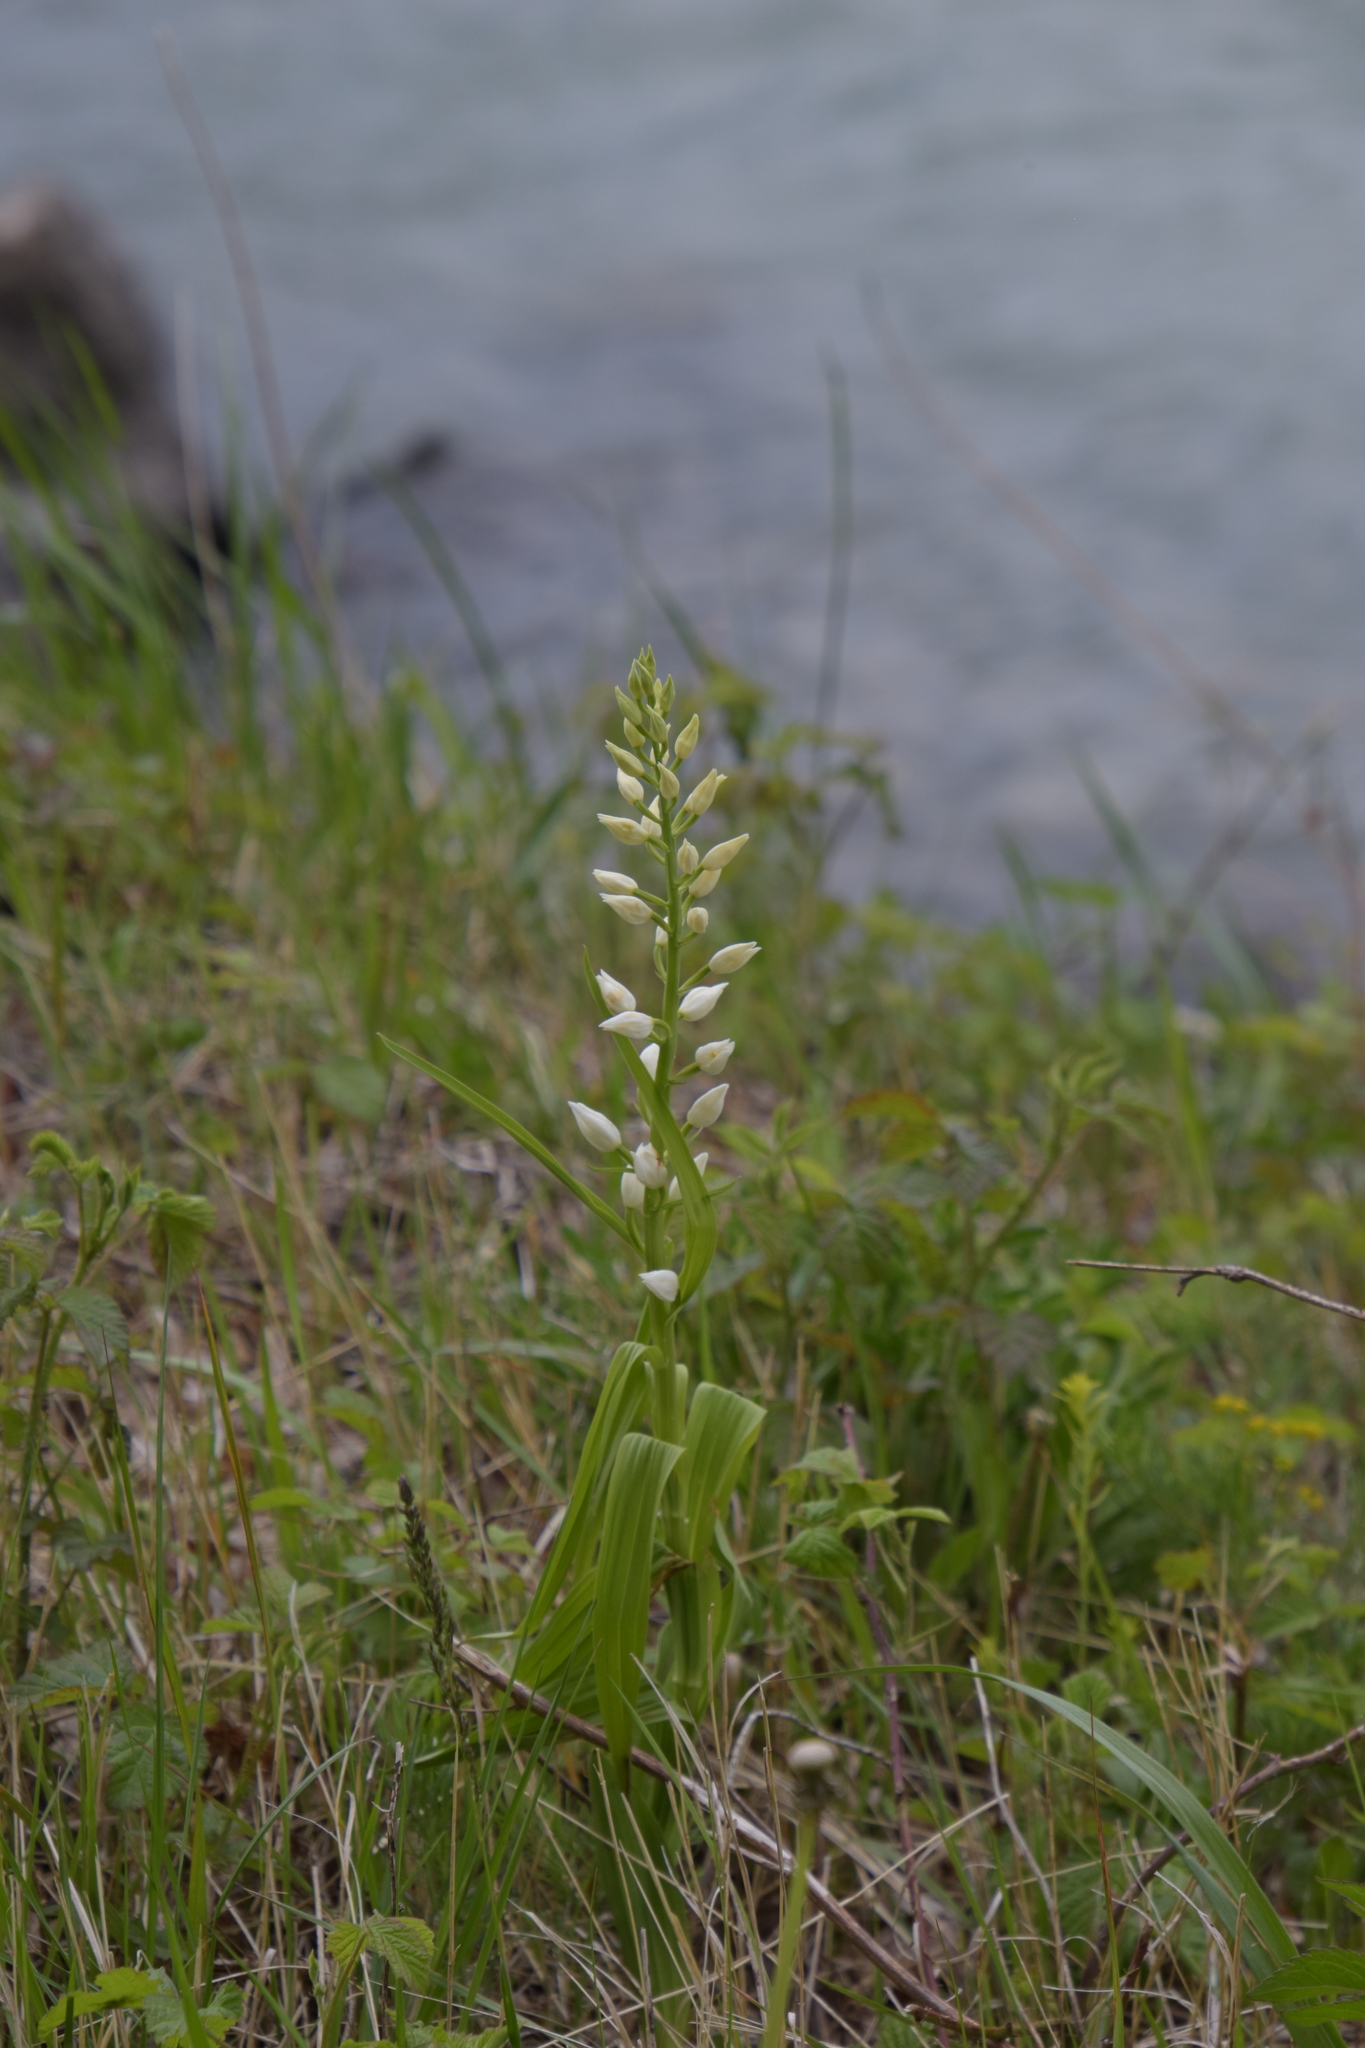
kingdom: Plantae
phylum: Tracheophyta
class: Liliopsida
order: Asparagales
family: Orchidaceae
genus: Cephalanthera
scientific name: Cephalanthera longifolia
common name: Narrow-leaved helleborine
